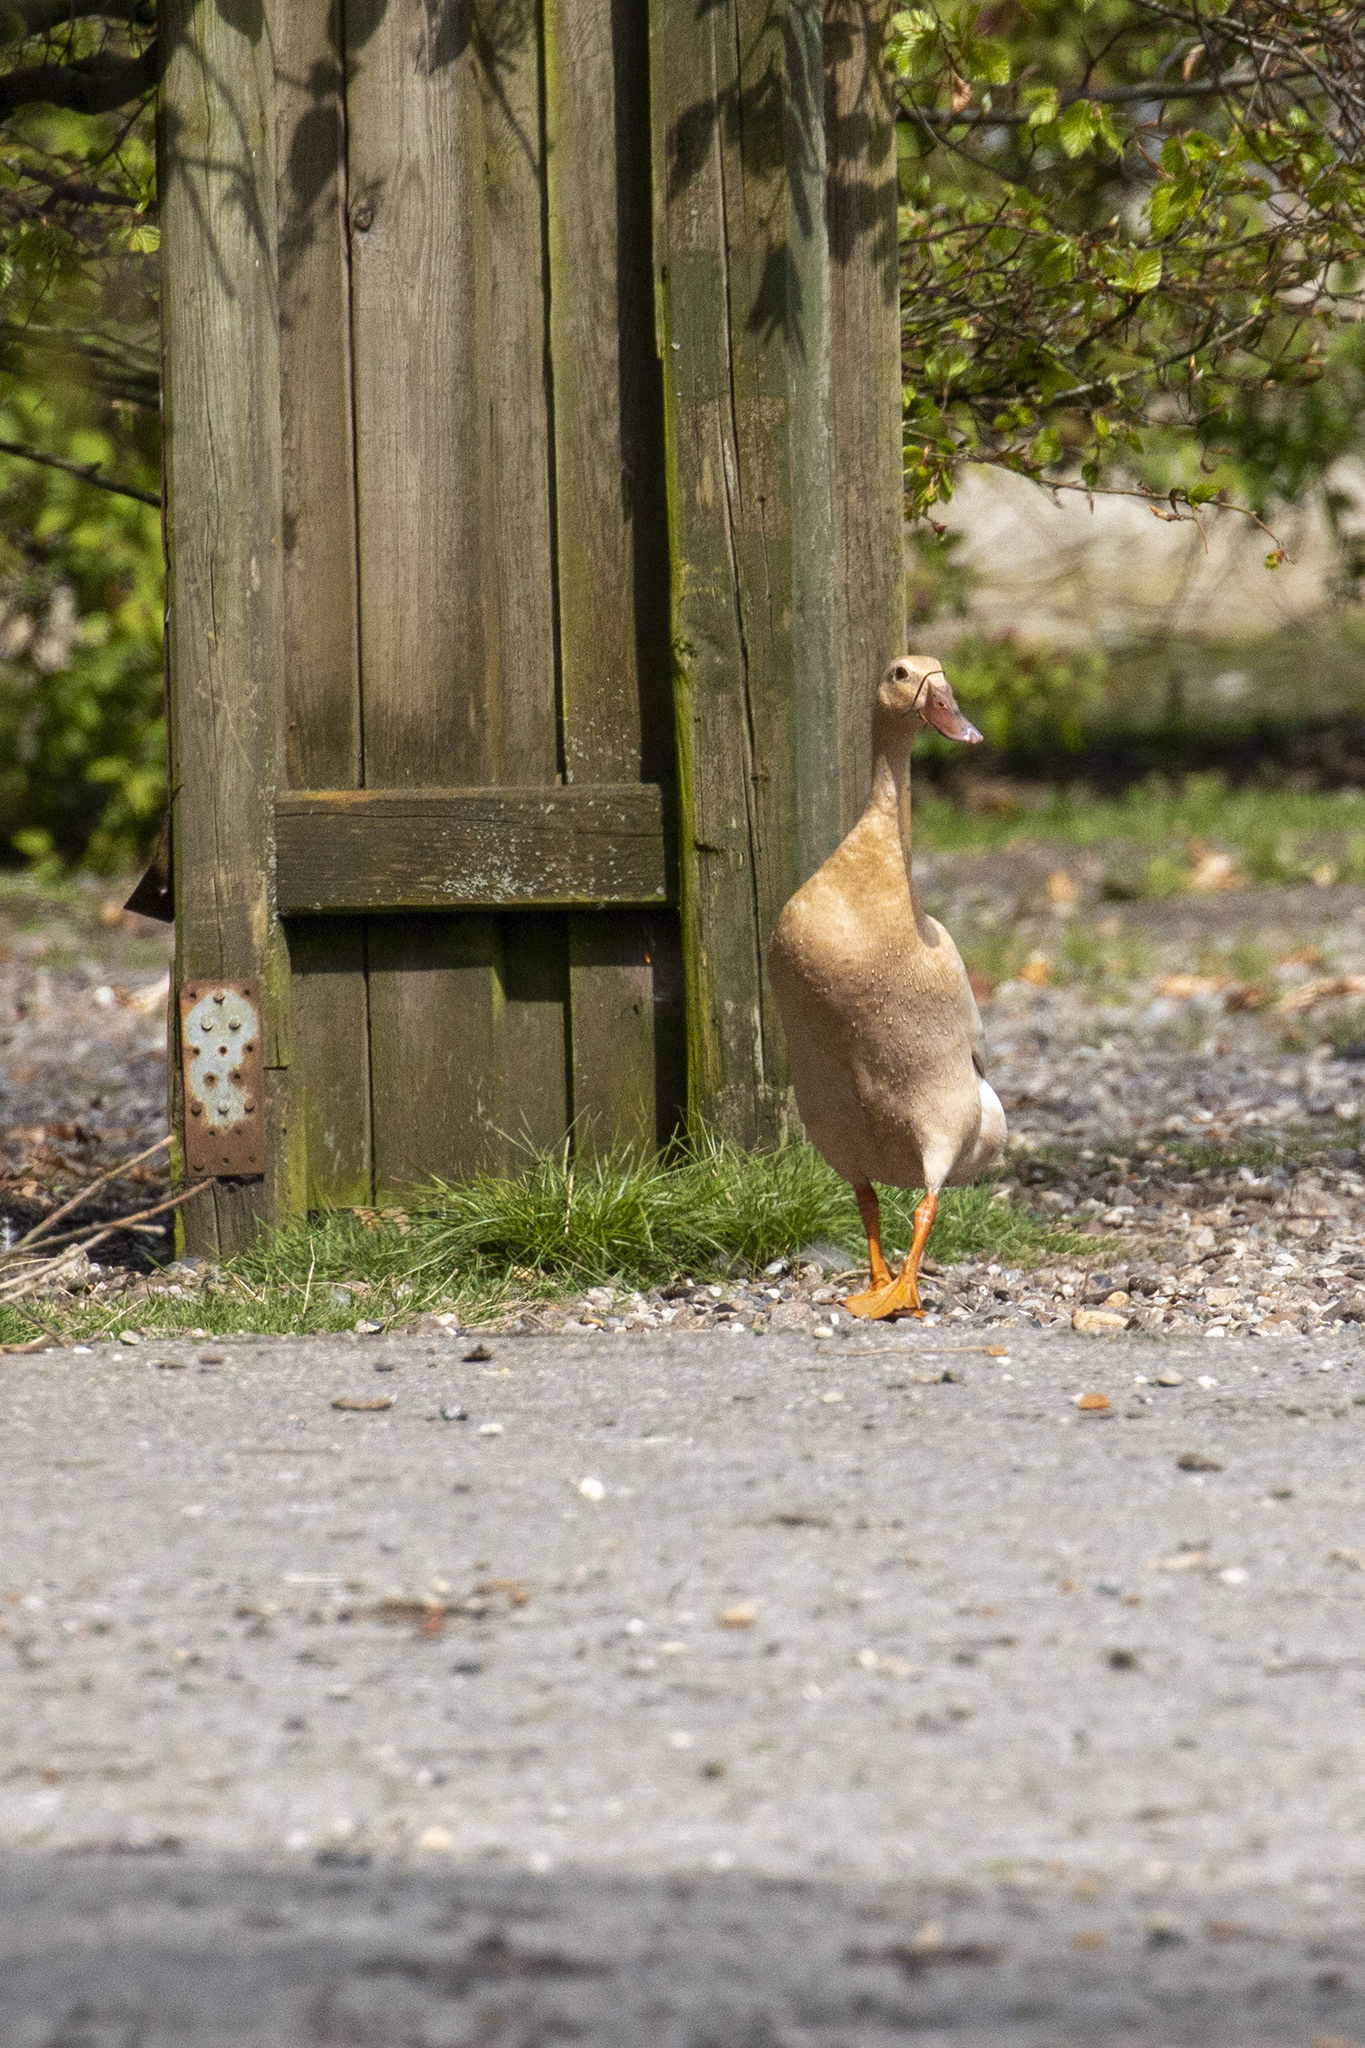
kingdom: Animalia
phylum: Chordata
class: Aves
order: Anseriformes
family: Anatidae
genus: Anas
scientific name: Anas platyrhynchos
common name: Mallard
